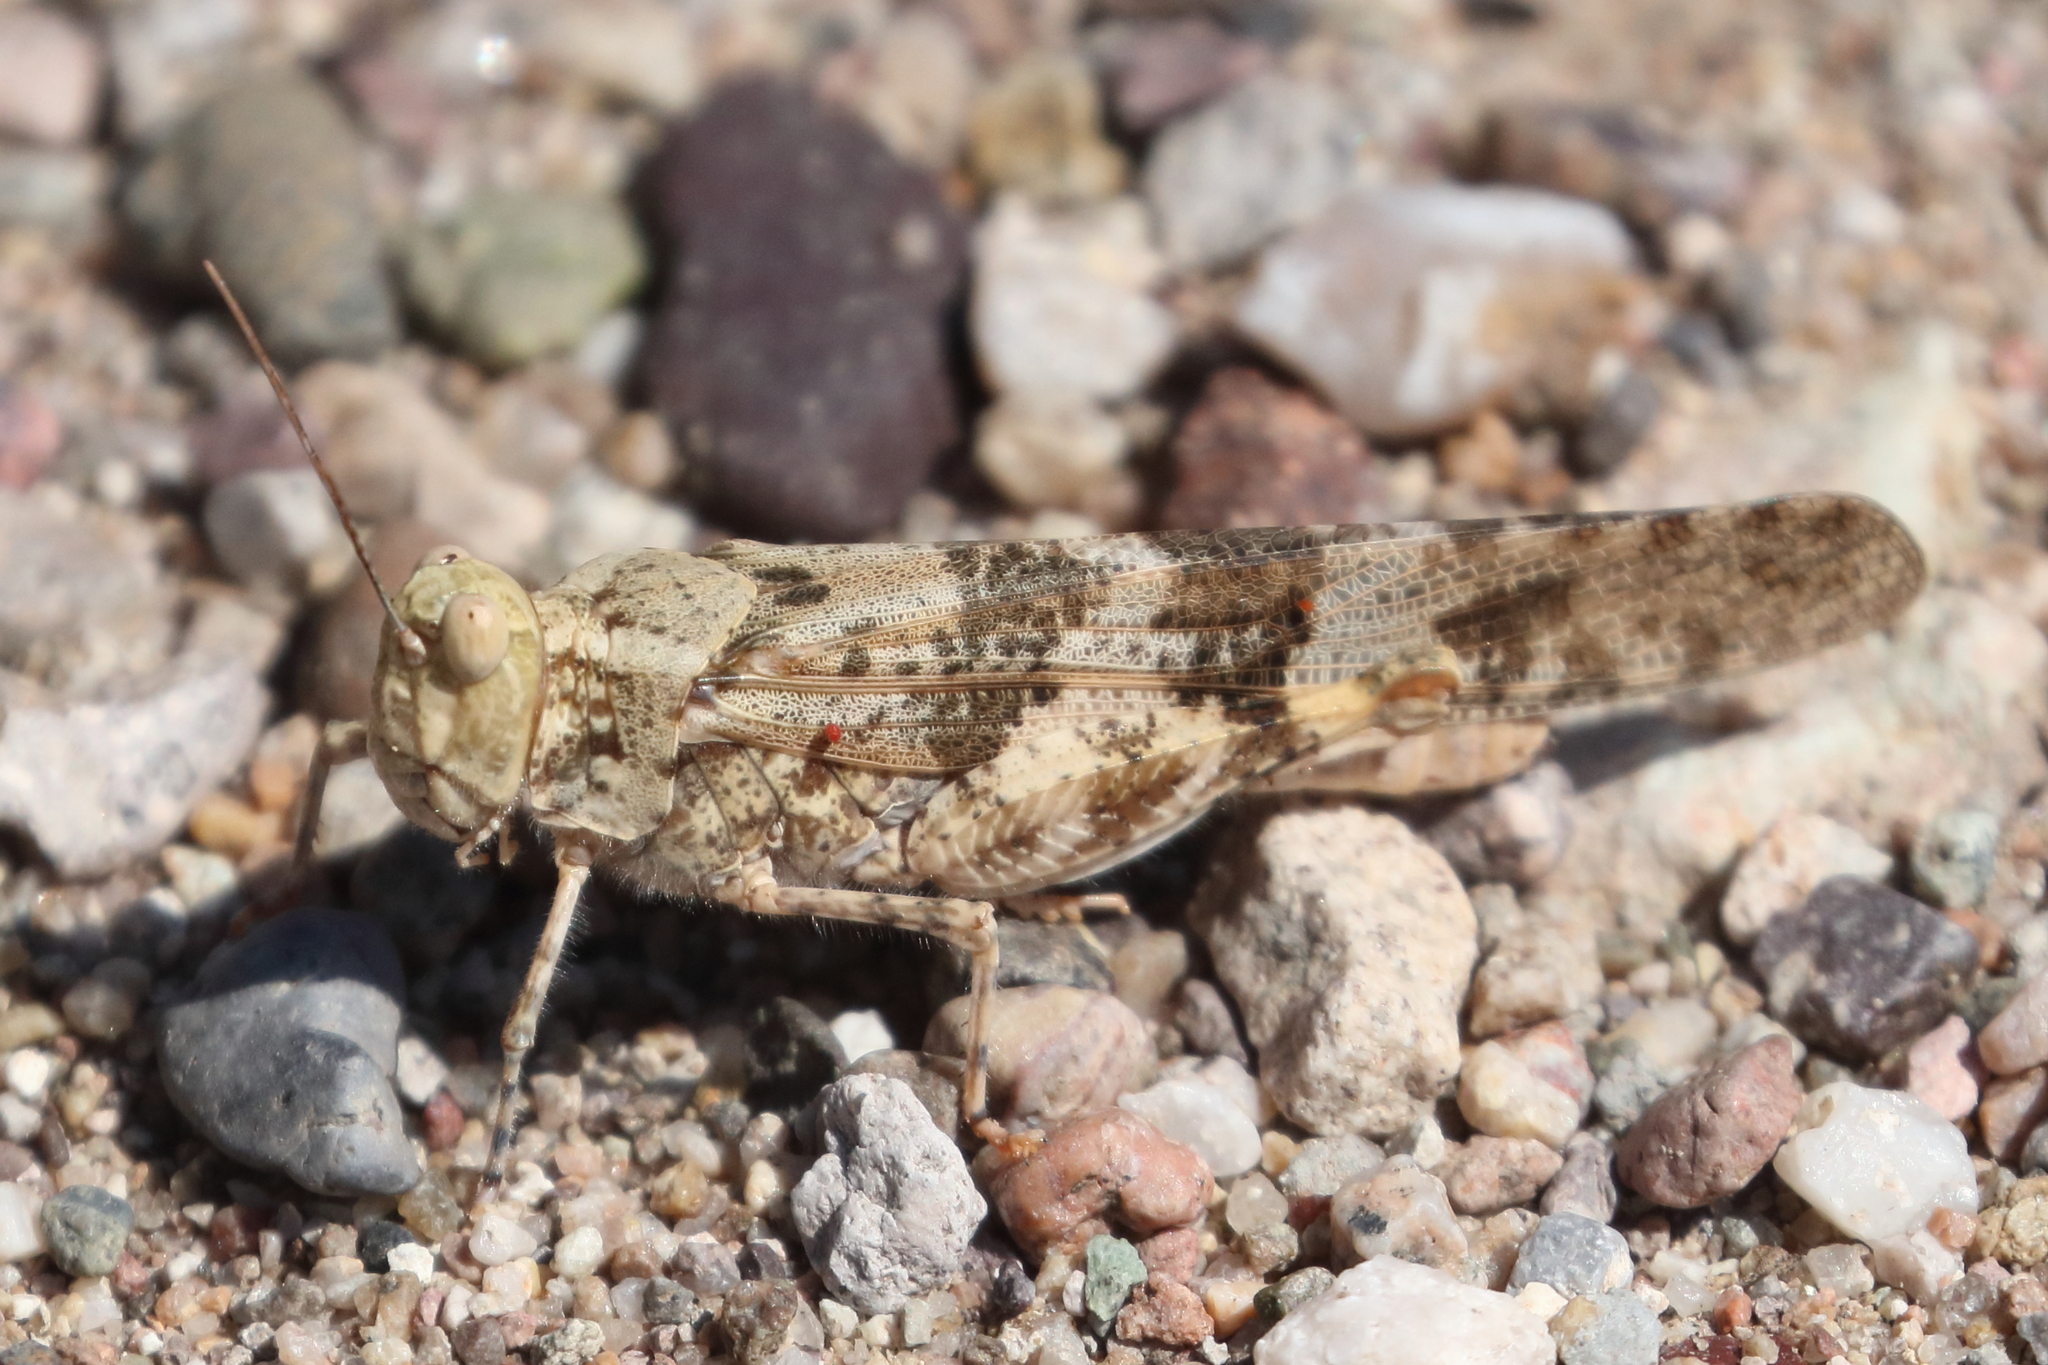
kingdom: Animalia
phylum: Arthropoda
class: Insecta
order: Orthoptera
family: Acrididae
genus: Trimerotropis
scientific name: Trimerotropis pallidipennis
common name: Pallid-winged grasshopper
